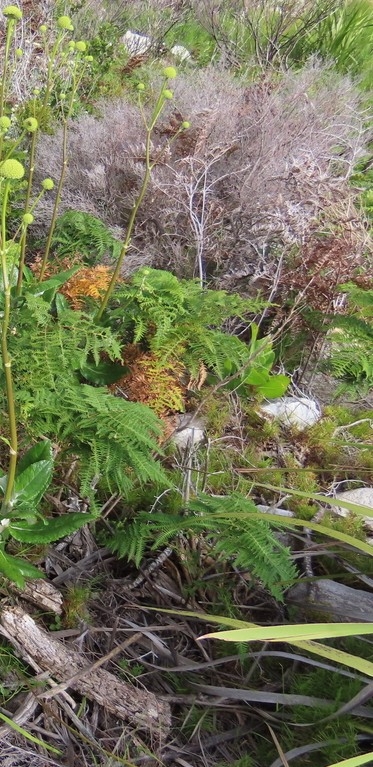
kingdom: Plantae
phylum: Tracheophyta
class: Polypodiopsida
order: Polypodiales
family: Dennstaedtiaceae
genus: Pteridium
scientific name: Pteridium aquilinum
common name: Bracken
